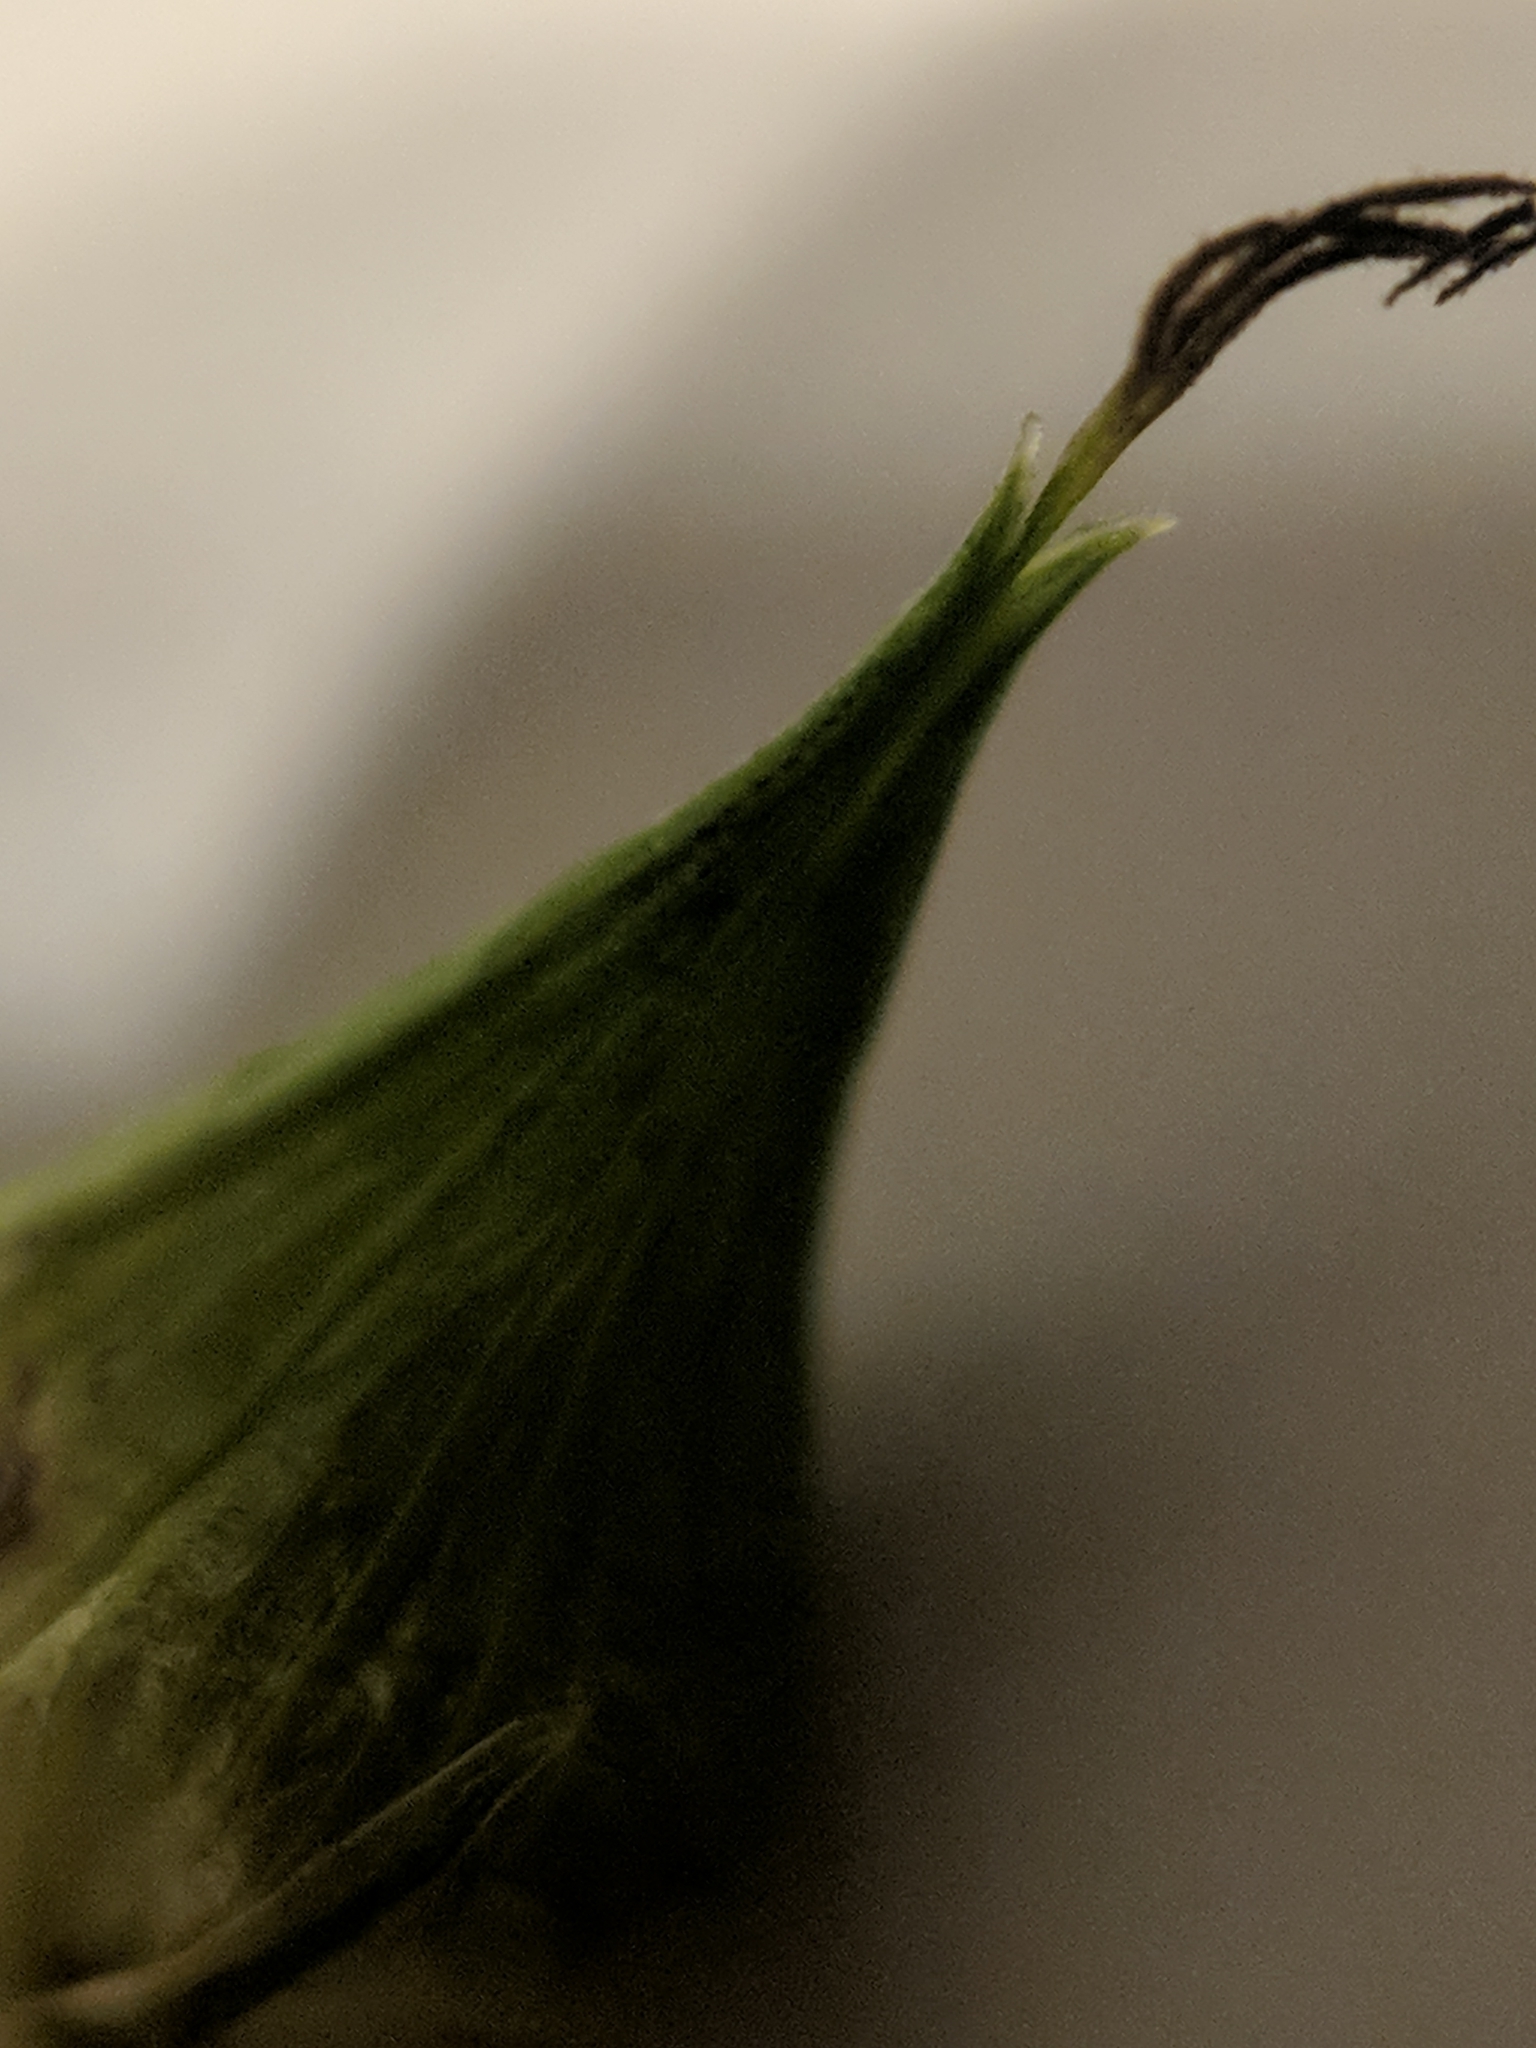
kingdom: Plantae
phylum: Tracheophyta
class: Liliopsida
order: Poales
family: Cyperaceae
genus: Carex
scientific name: Carex intumescens
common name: Greater bladder sedge
